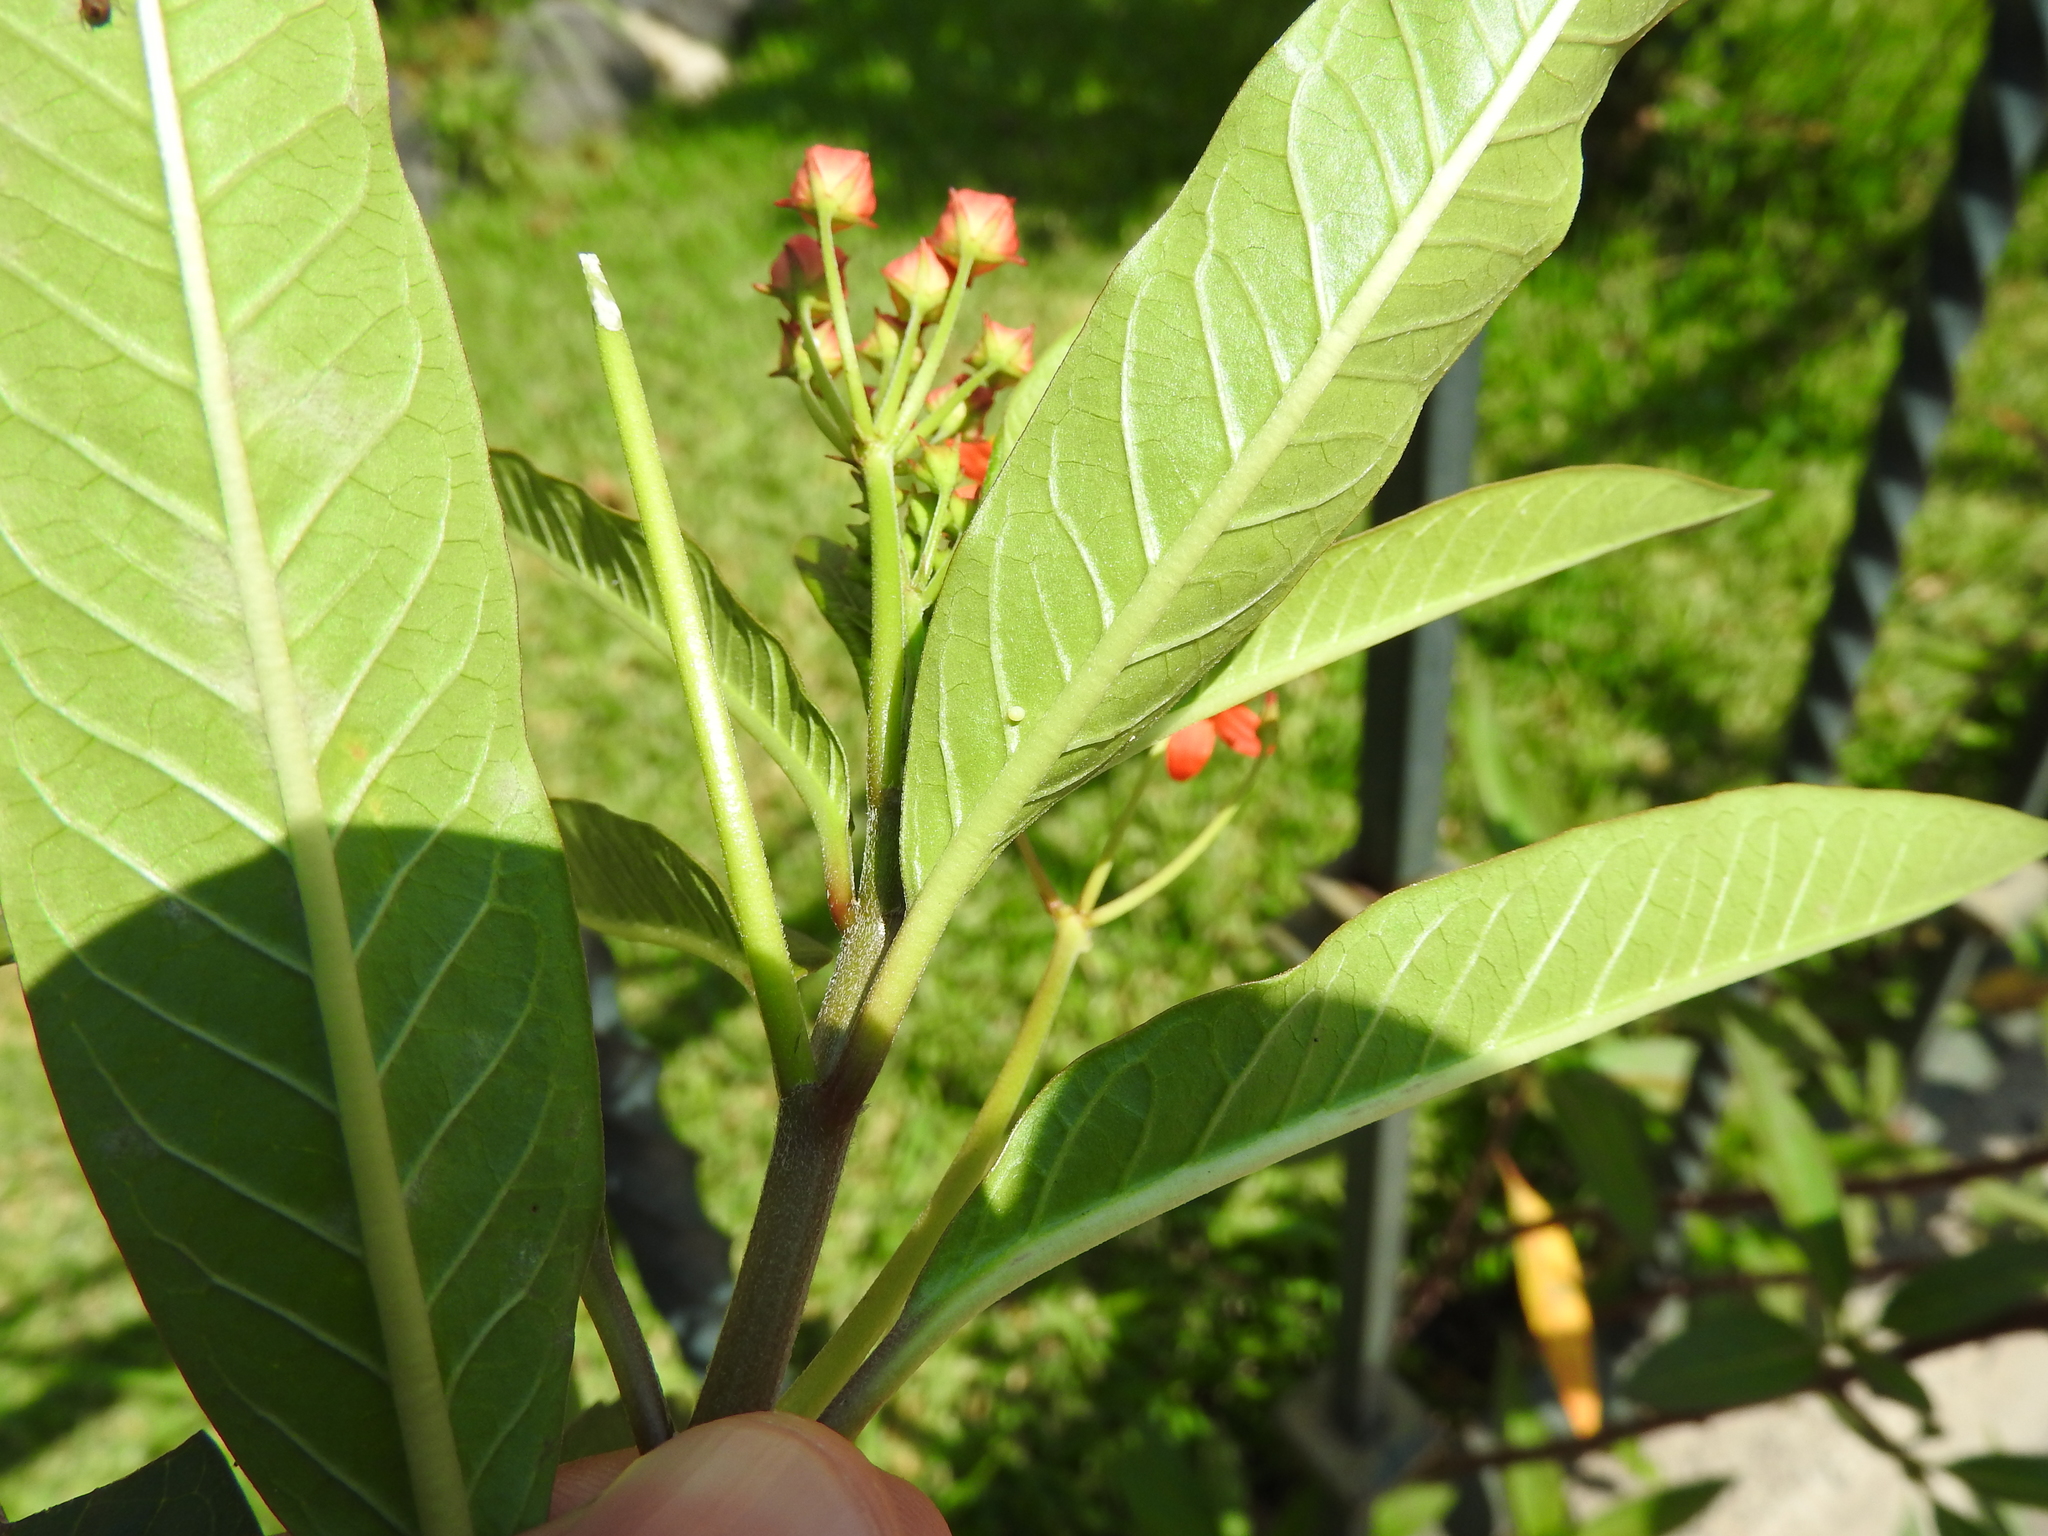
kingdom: Animalia
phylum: Arthropoda
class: Insecta
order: Lepidoptera
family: Nymphalidae
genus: Danaus
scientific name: Danaus plexippus
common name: Monarch
